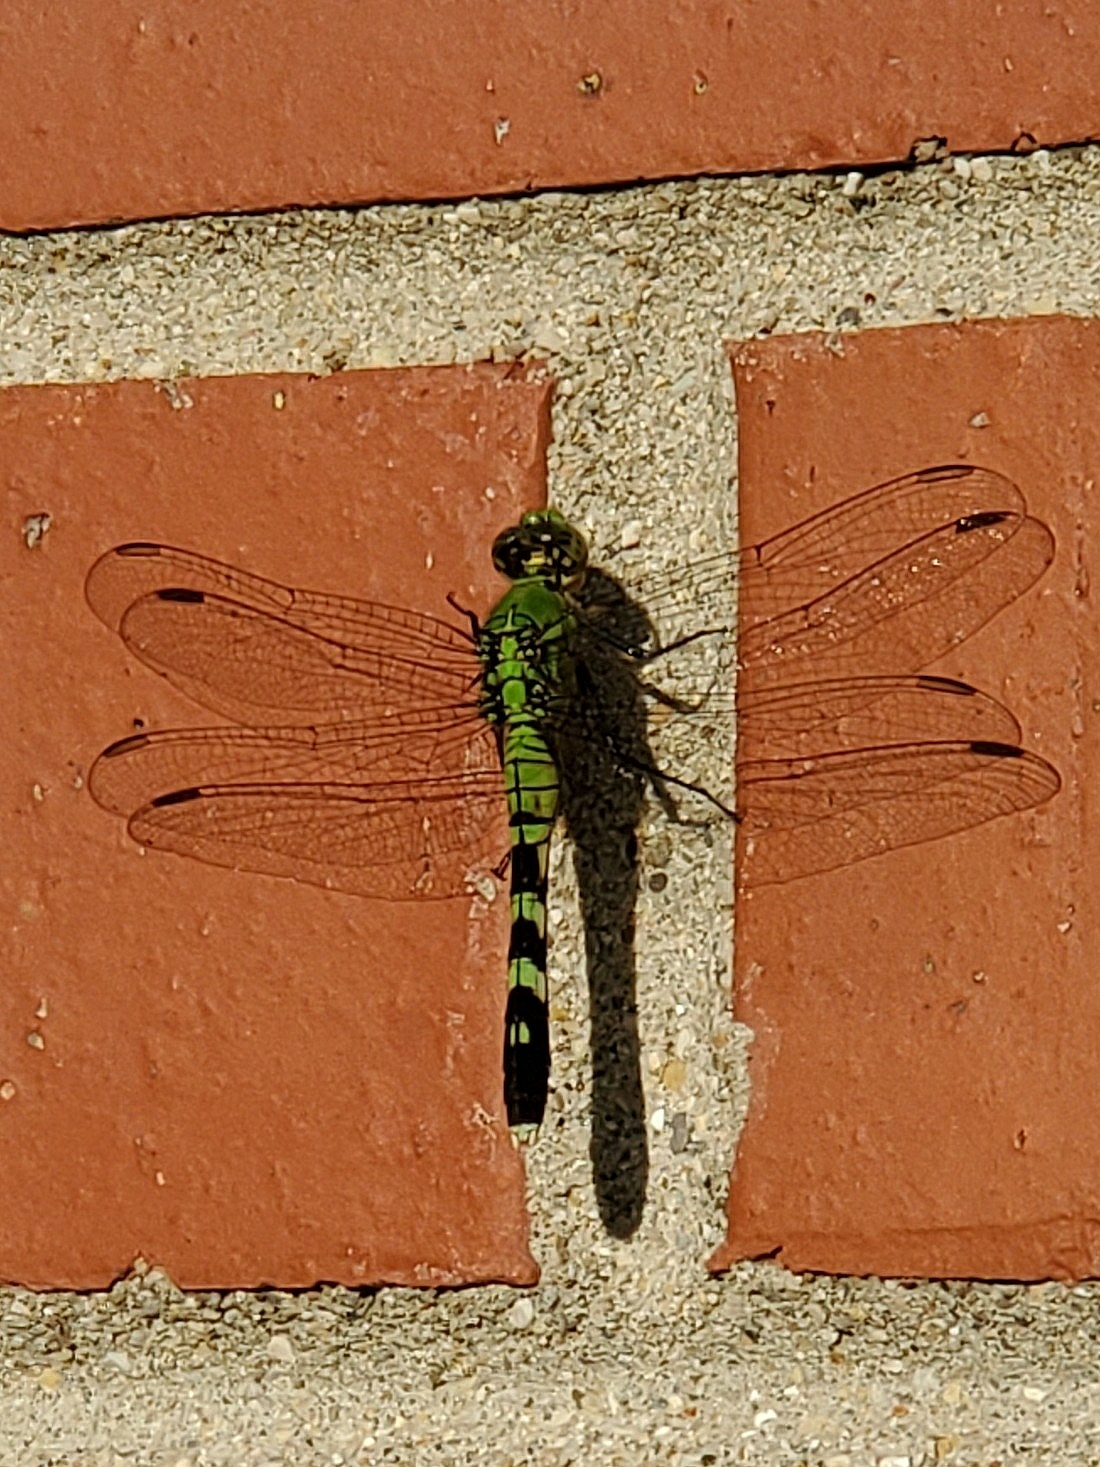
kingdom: Animalia
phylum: Arthropoda
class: Insecta
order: Odonata
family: Libellulidae
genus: Erythemis
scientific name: Erythemis simplicicollis
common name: Eastern pondhawk
